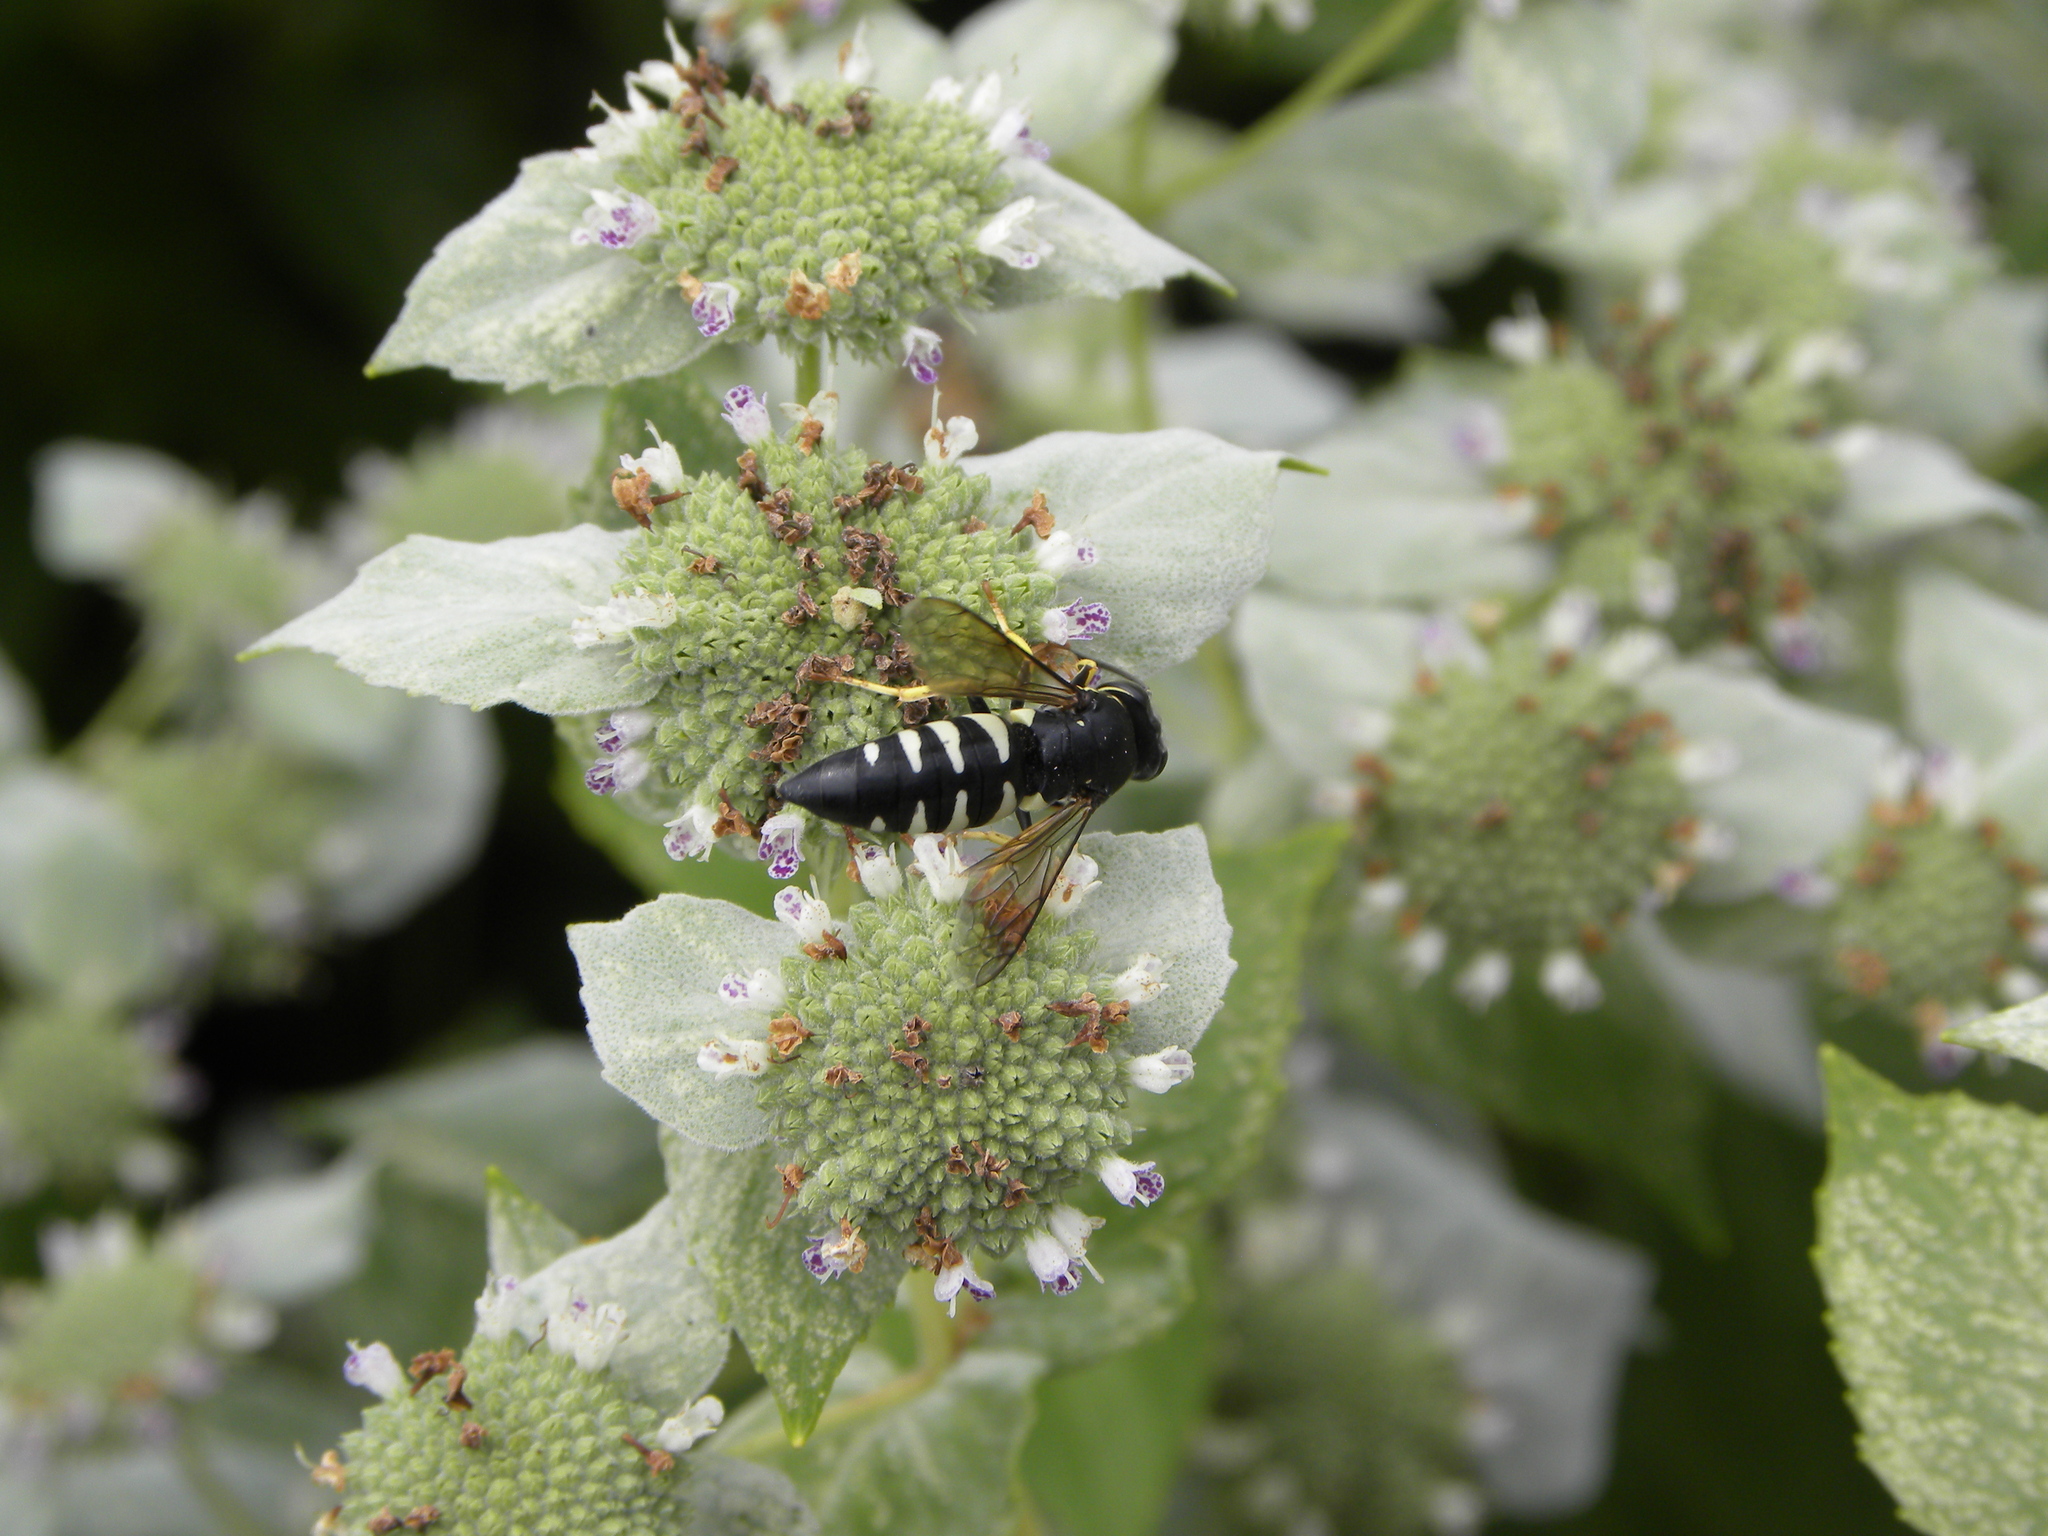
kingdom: Animalia
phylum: Arthropoda
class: Insecta
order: Hymenoptera
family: Crabronidae
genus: Bicyrtes
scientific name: Bicyrtes quadrifasciatus
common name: Four-banded stink bug hunter wasp
